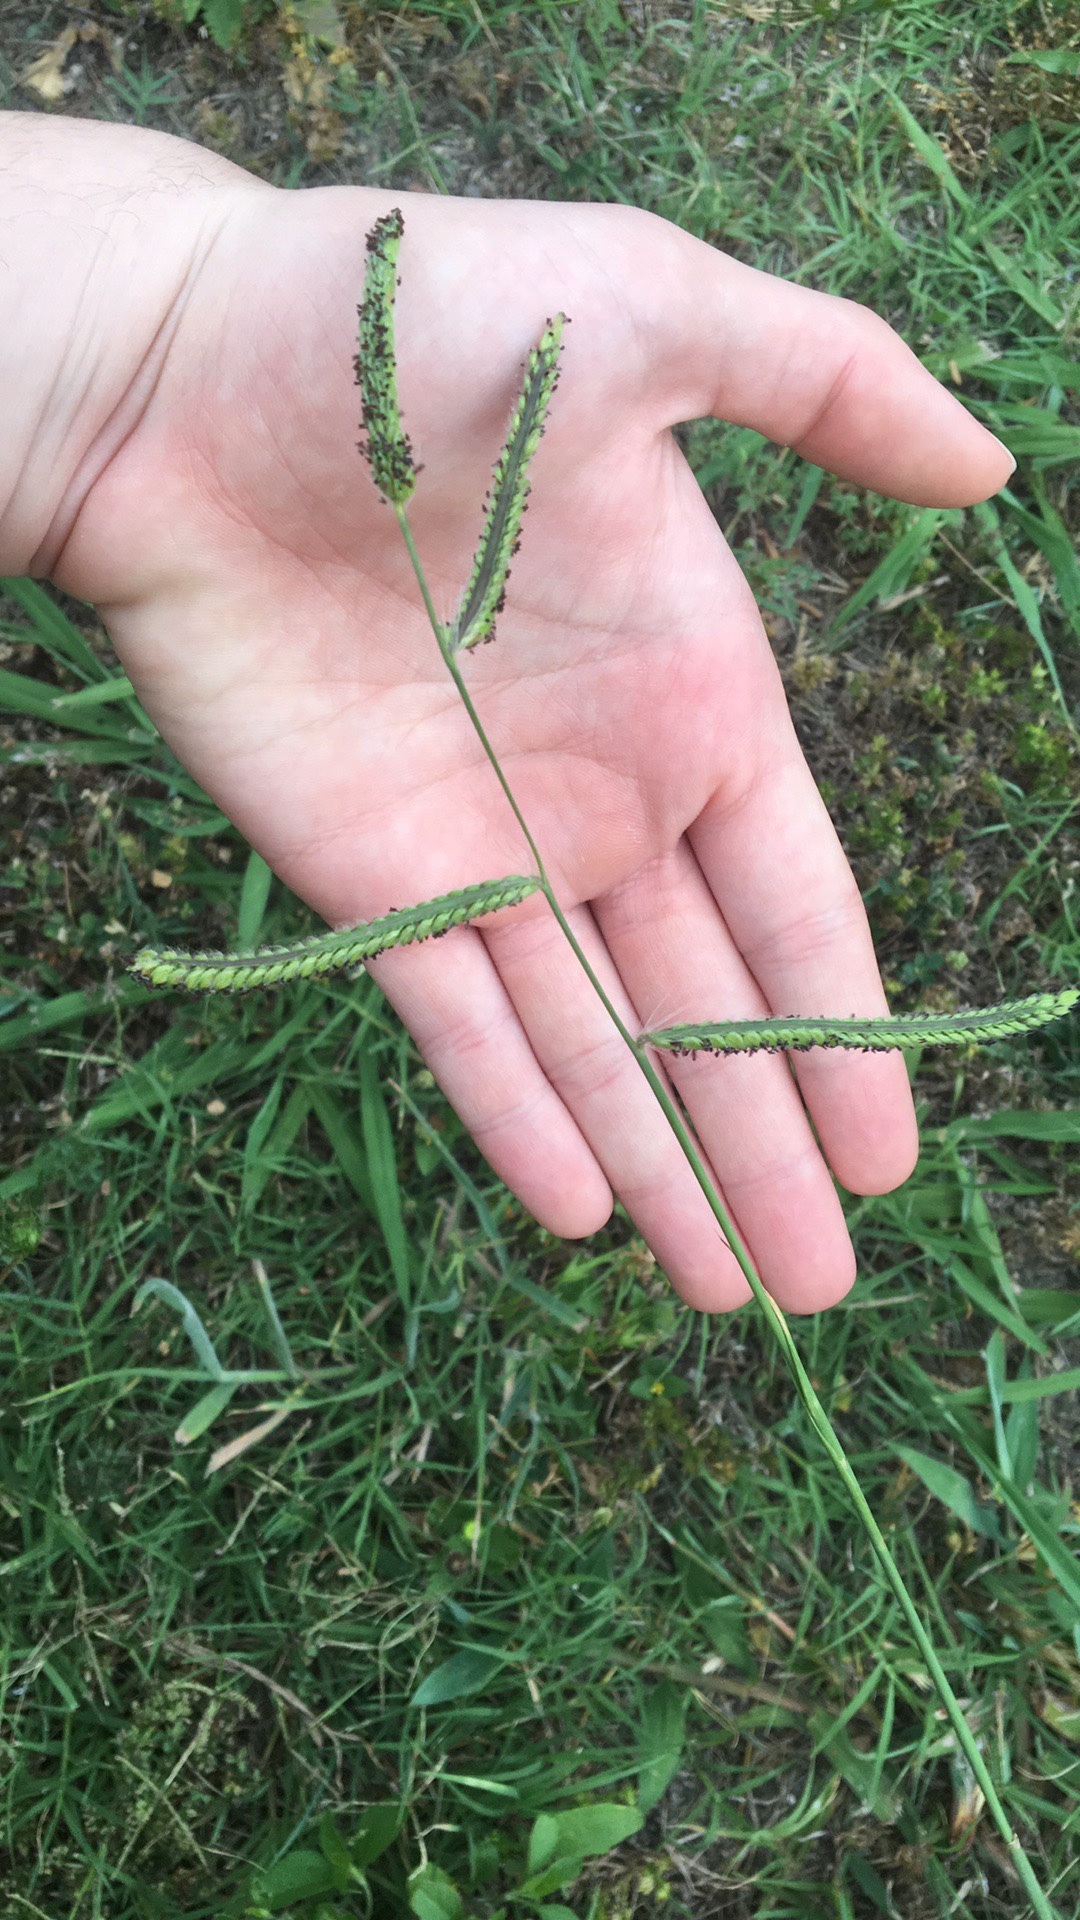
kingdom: Plantae
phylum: Tracheophyta
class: Liliopsida
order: Poales
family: Poaceae
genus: Paspalum
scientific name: Paspalum dilatatum
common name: Dallisgrass
